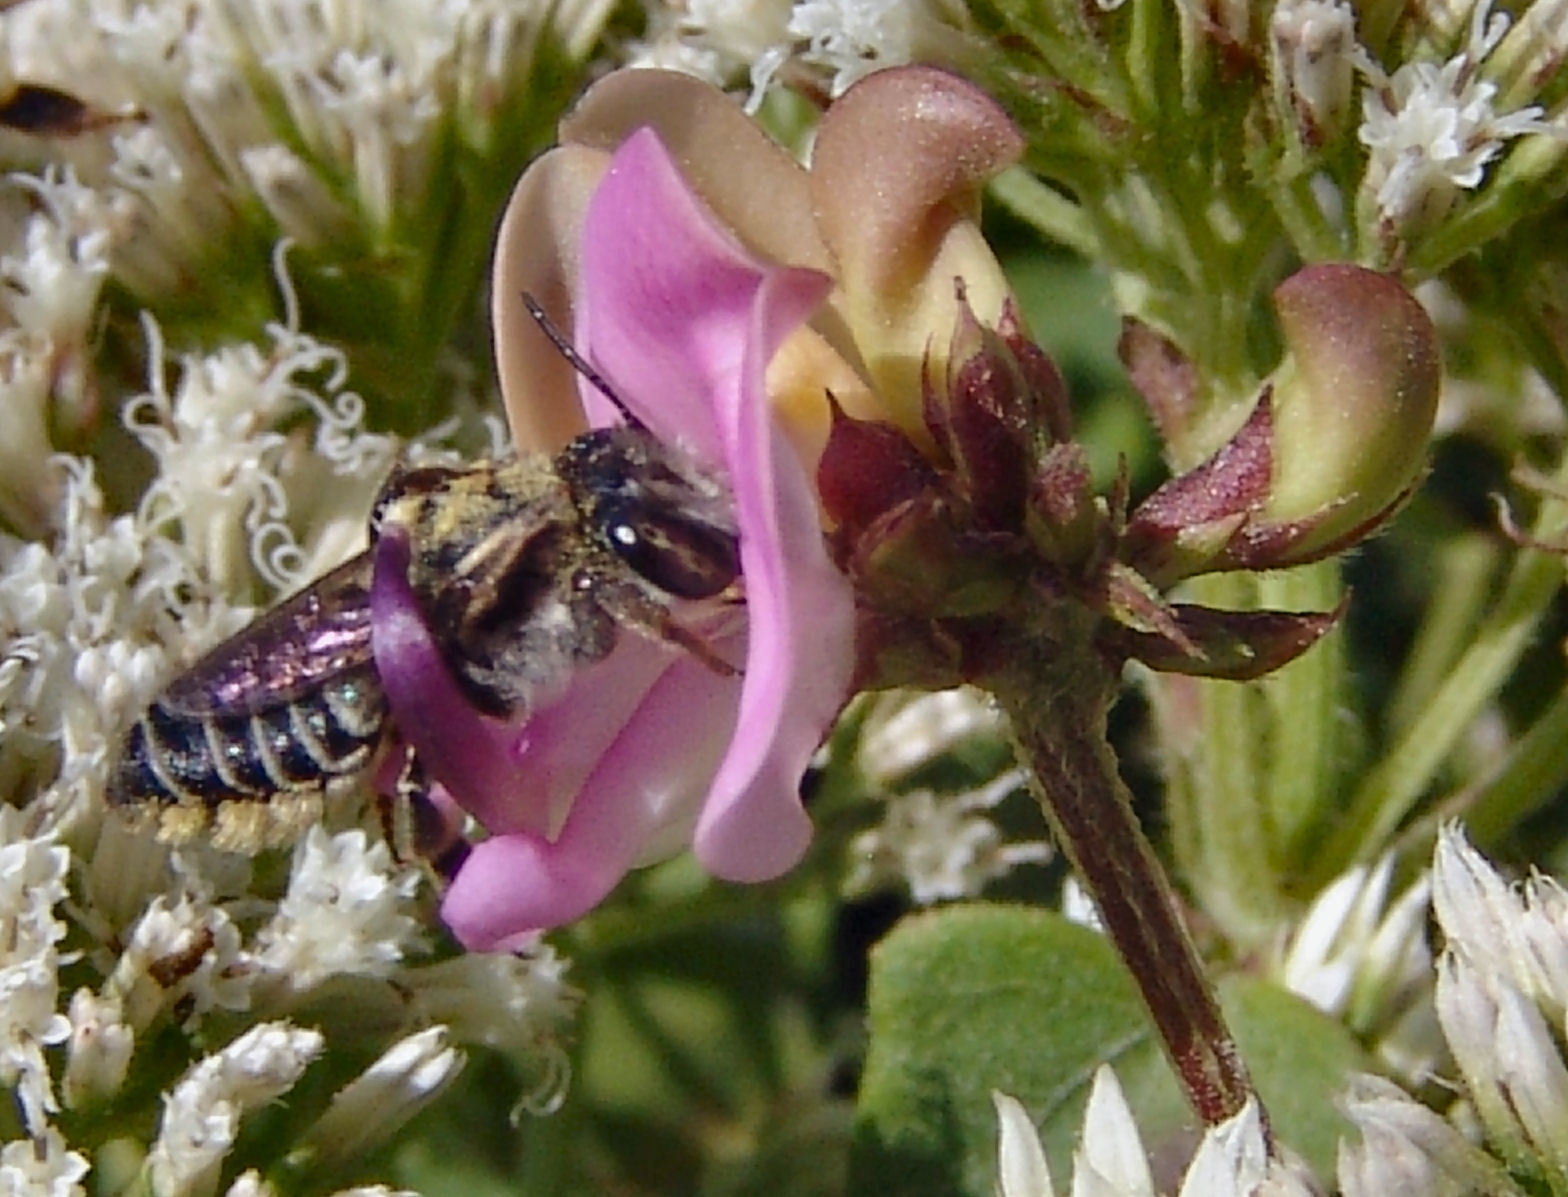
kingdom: Animalia
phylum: Arthropoda
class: Insecta
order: Hymenoptera
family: Megachilidae
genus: Megachile
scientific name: Megachile
